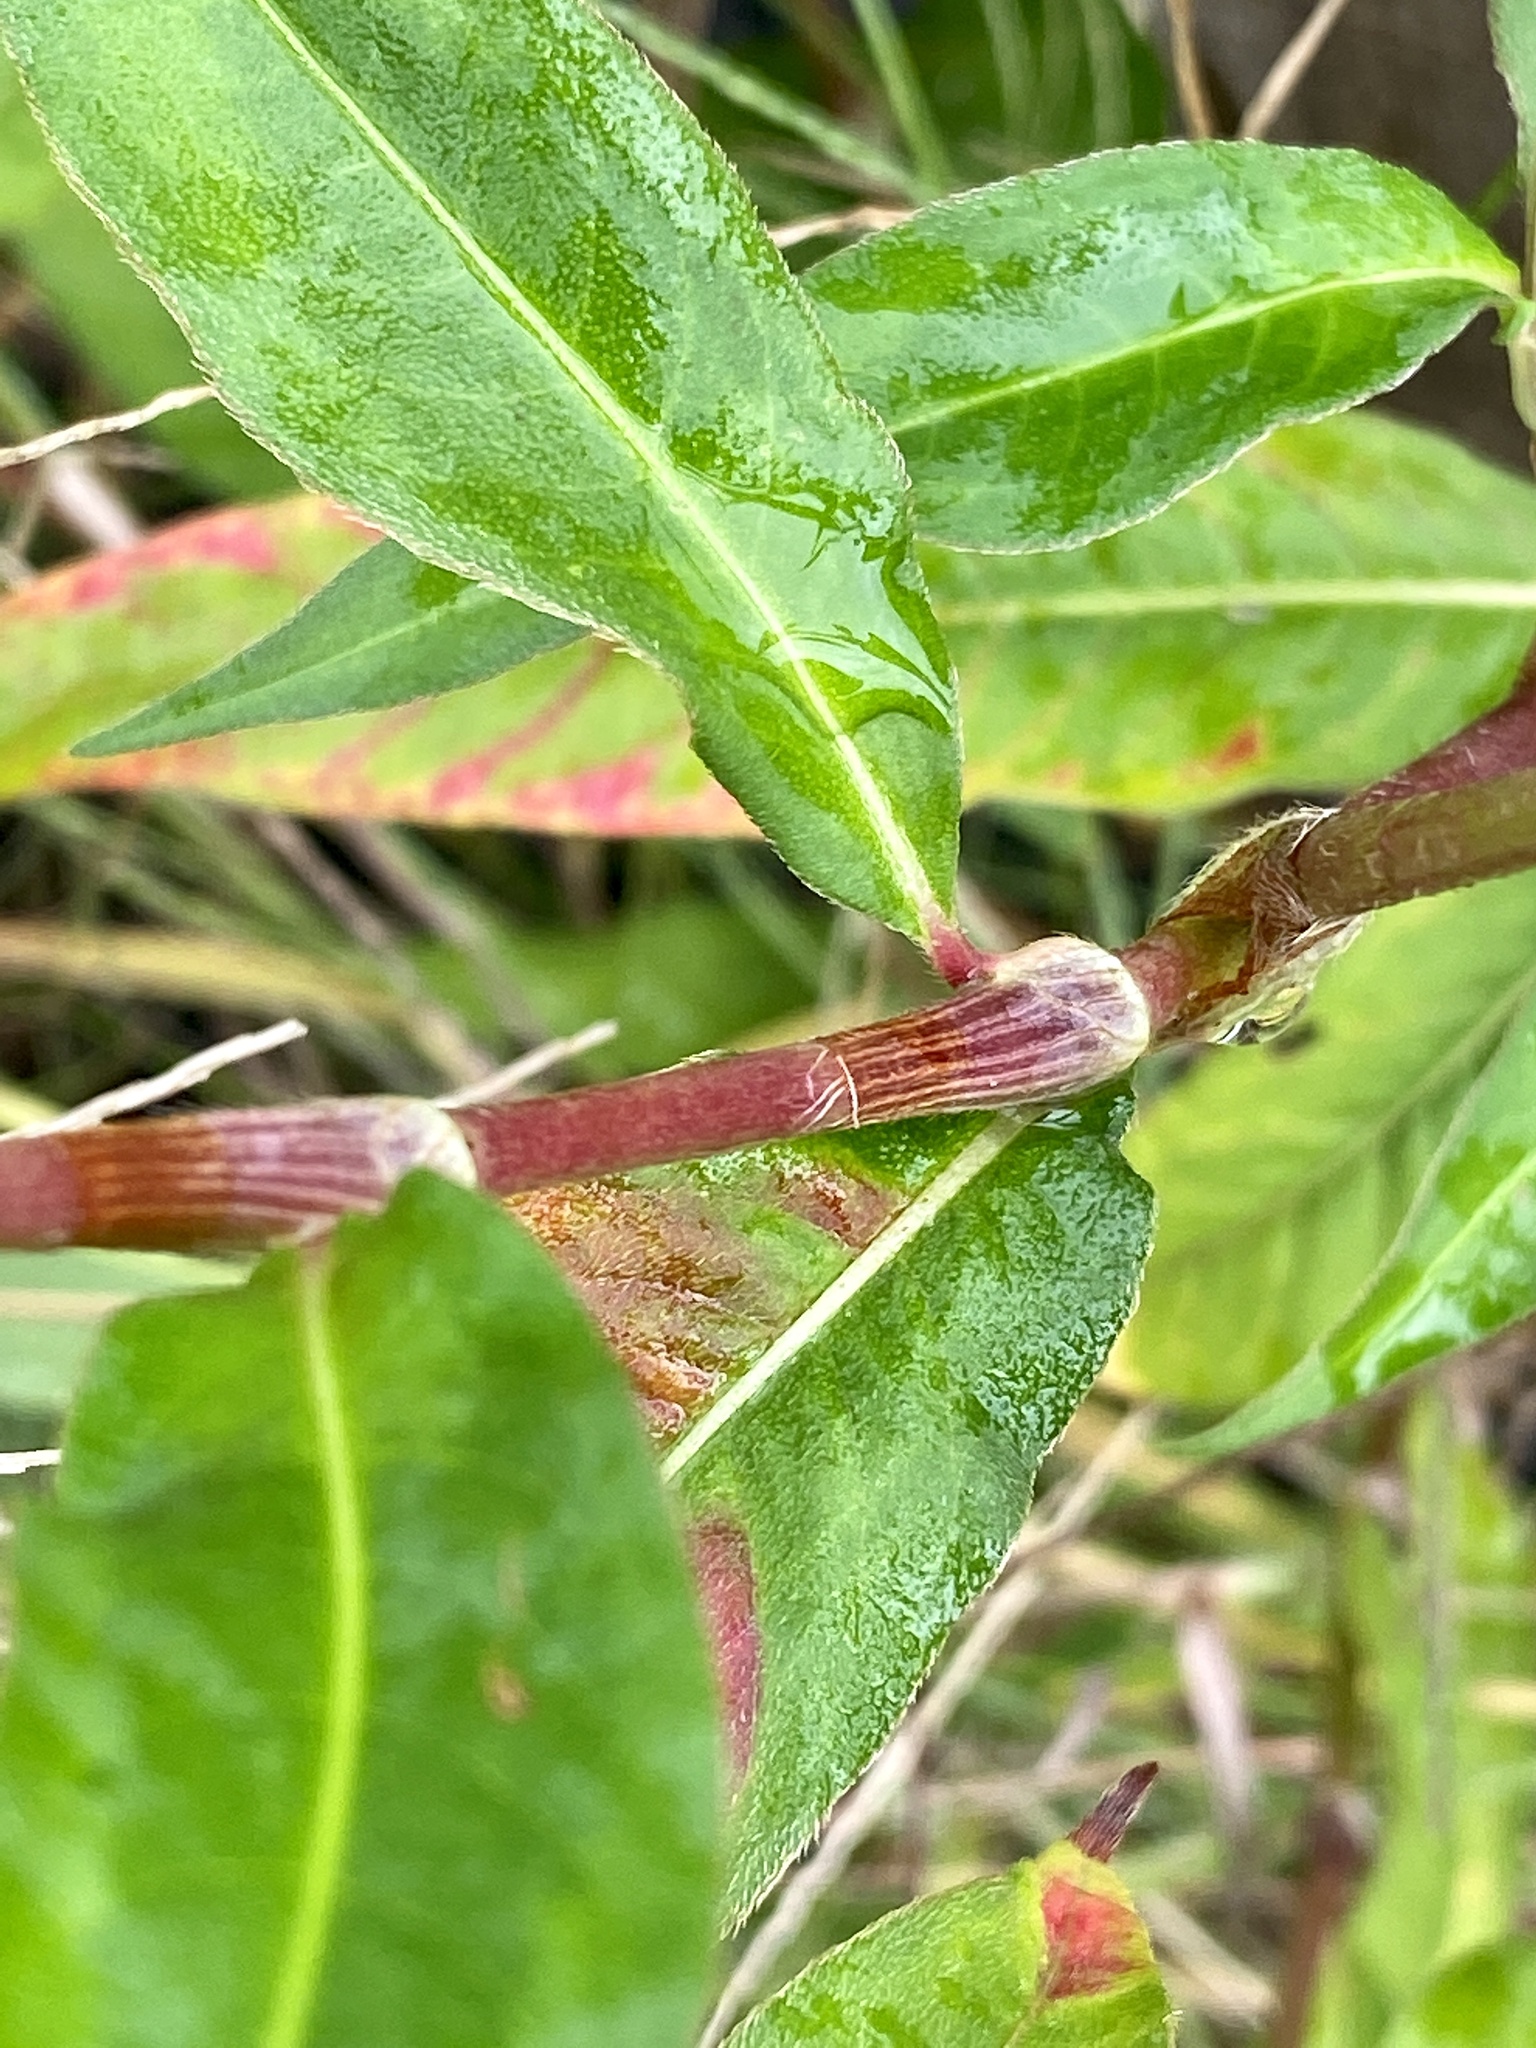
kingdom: Plantae
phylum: Tracheophyta
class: Magnoliopsida
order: Caryophyllales
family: Polygonaceae
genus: Persicaria
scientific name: Persicaria extremiorientalis
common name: Far-eastern smartweed
